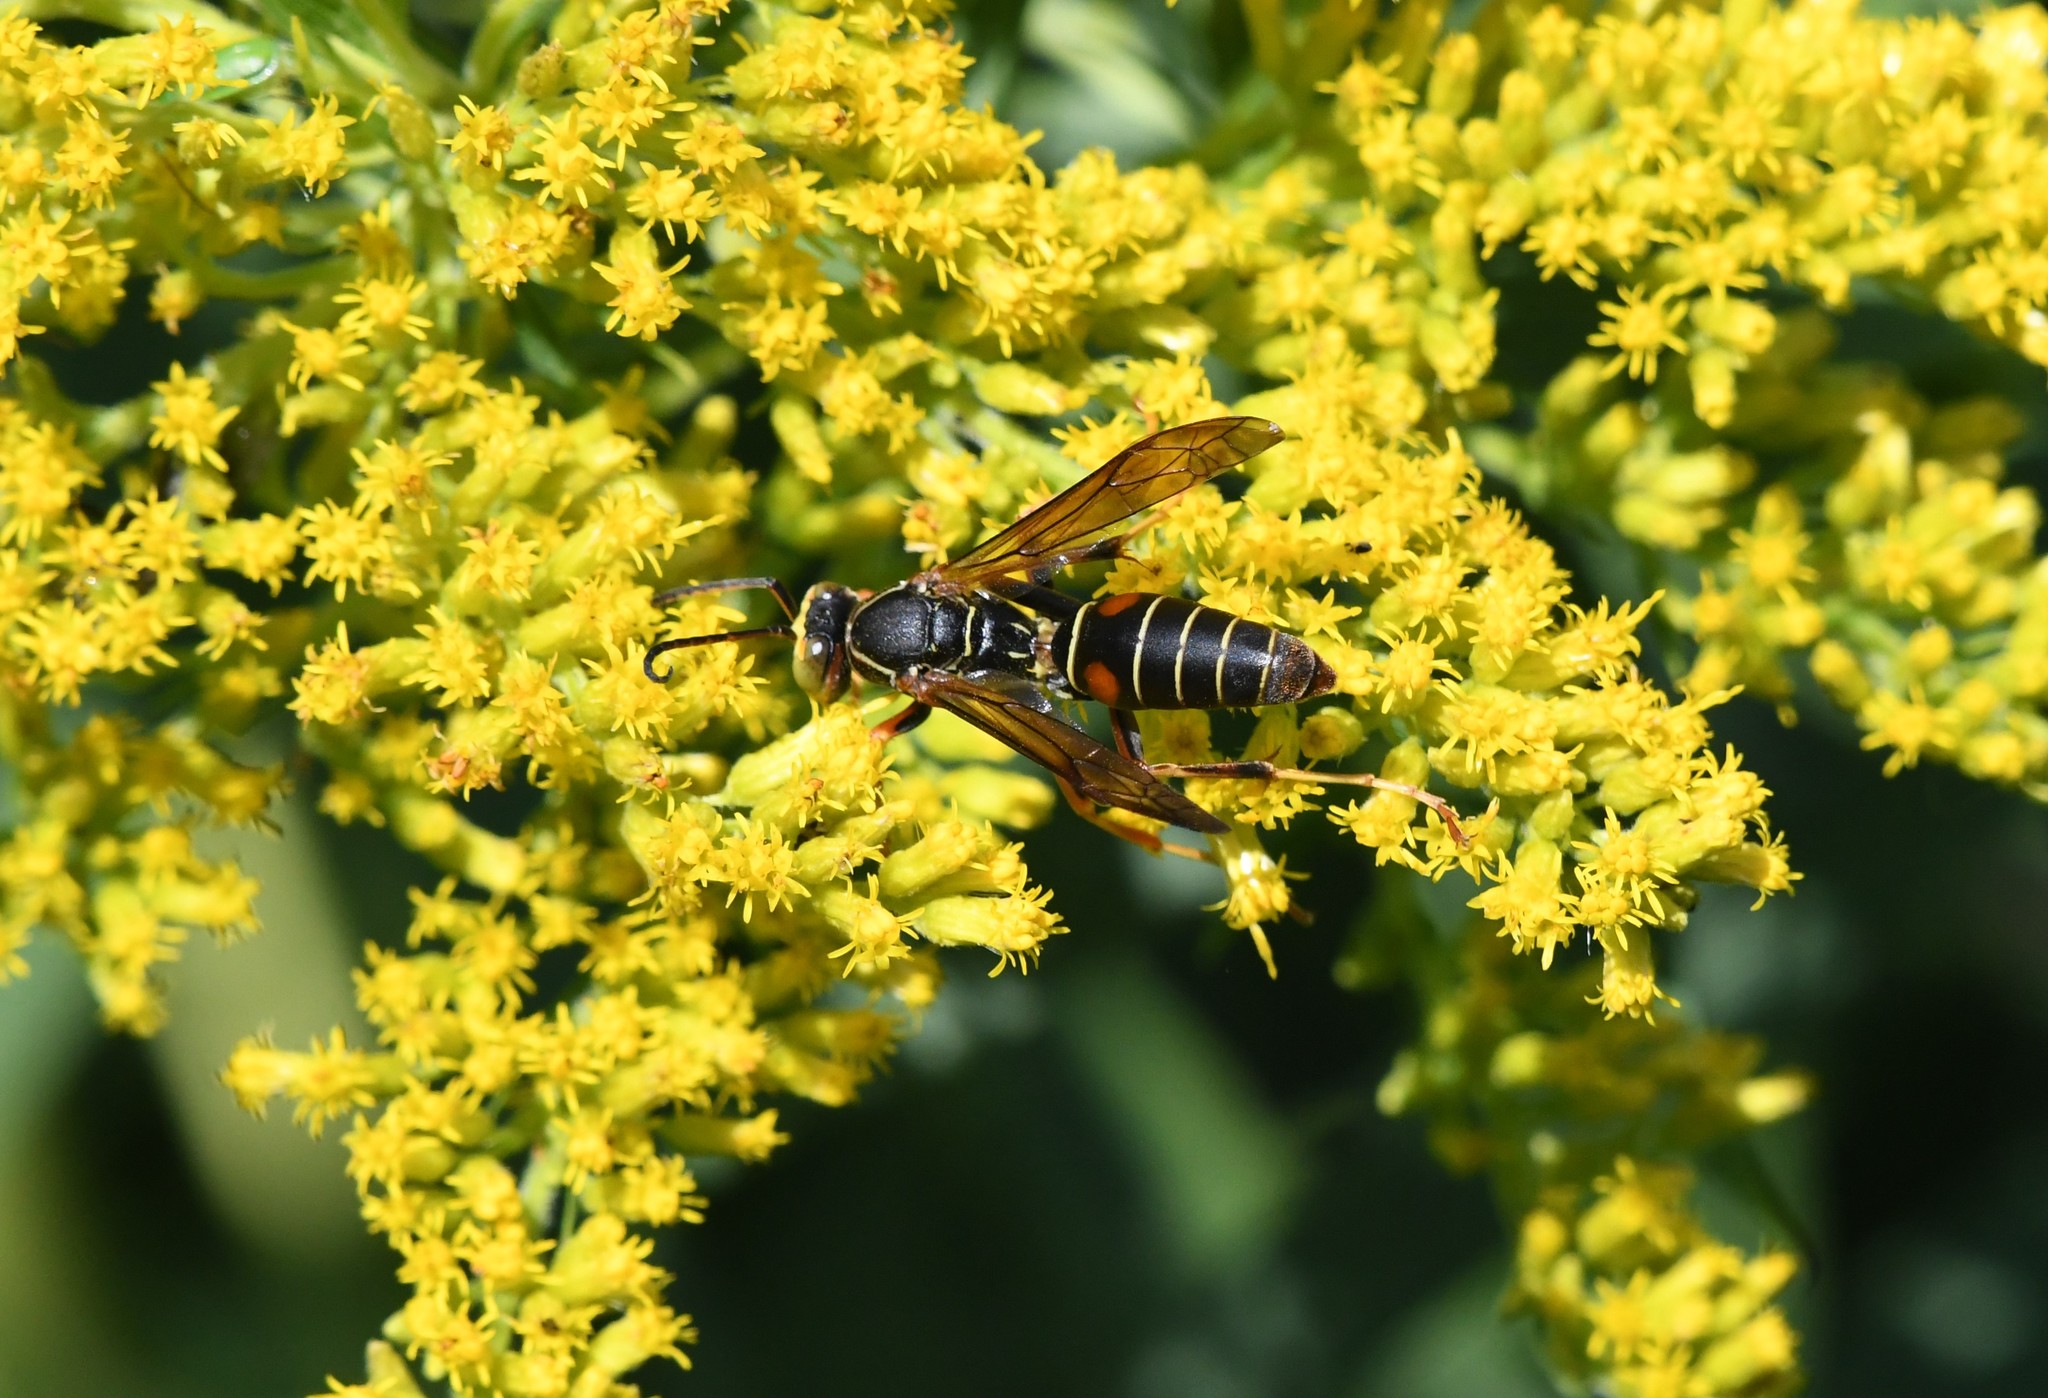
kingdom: Animalia
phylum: Arthropoda
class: Insecta
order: Hymenoptera
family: Eumenidae
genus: Polistes
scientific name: Polistes fuscatus
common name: Dark paper wasp
